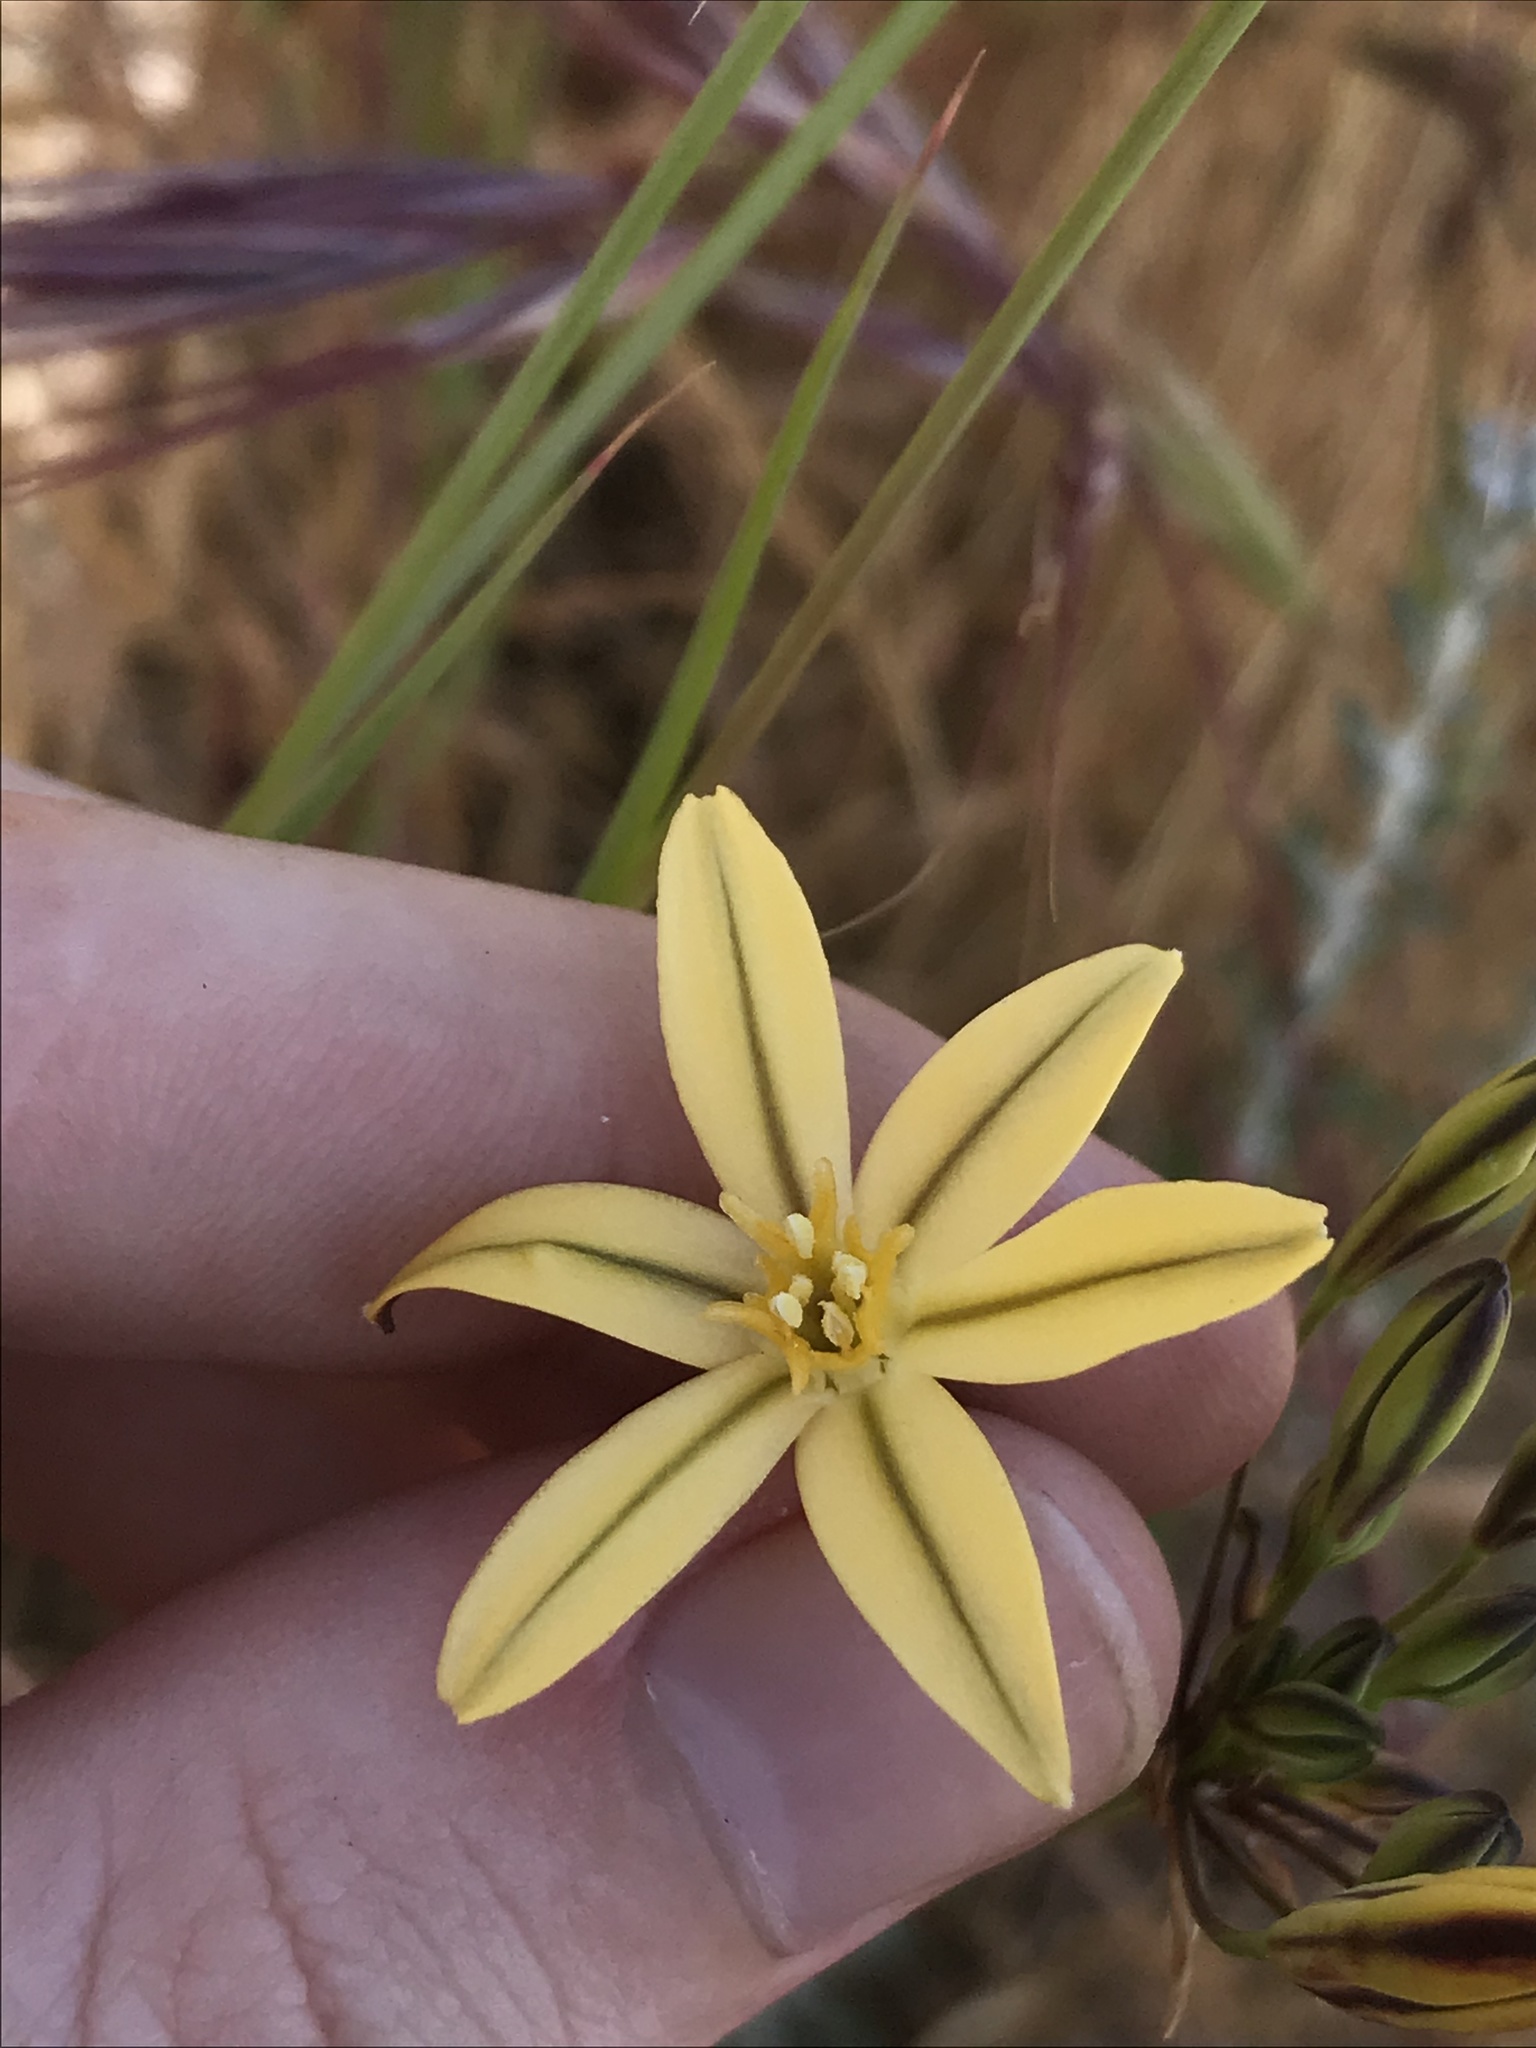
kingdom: Plantae
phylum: Tracheophyta
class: Liliopsida
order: Asparagales
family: Asparagaceae
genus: Triteleia
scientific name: Triteleia ixioides
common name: Yellow-brodiaea
